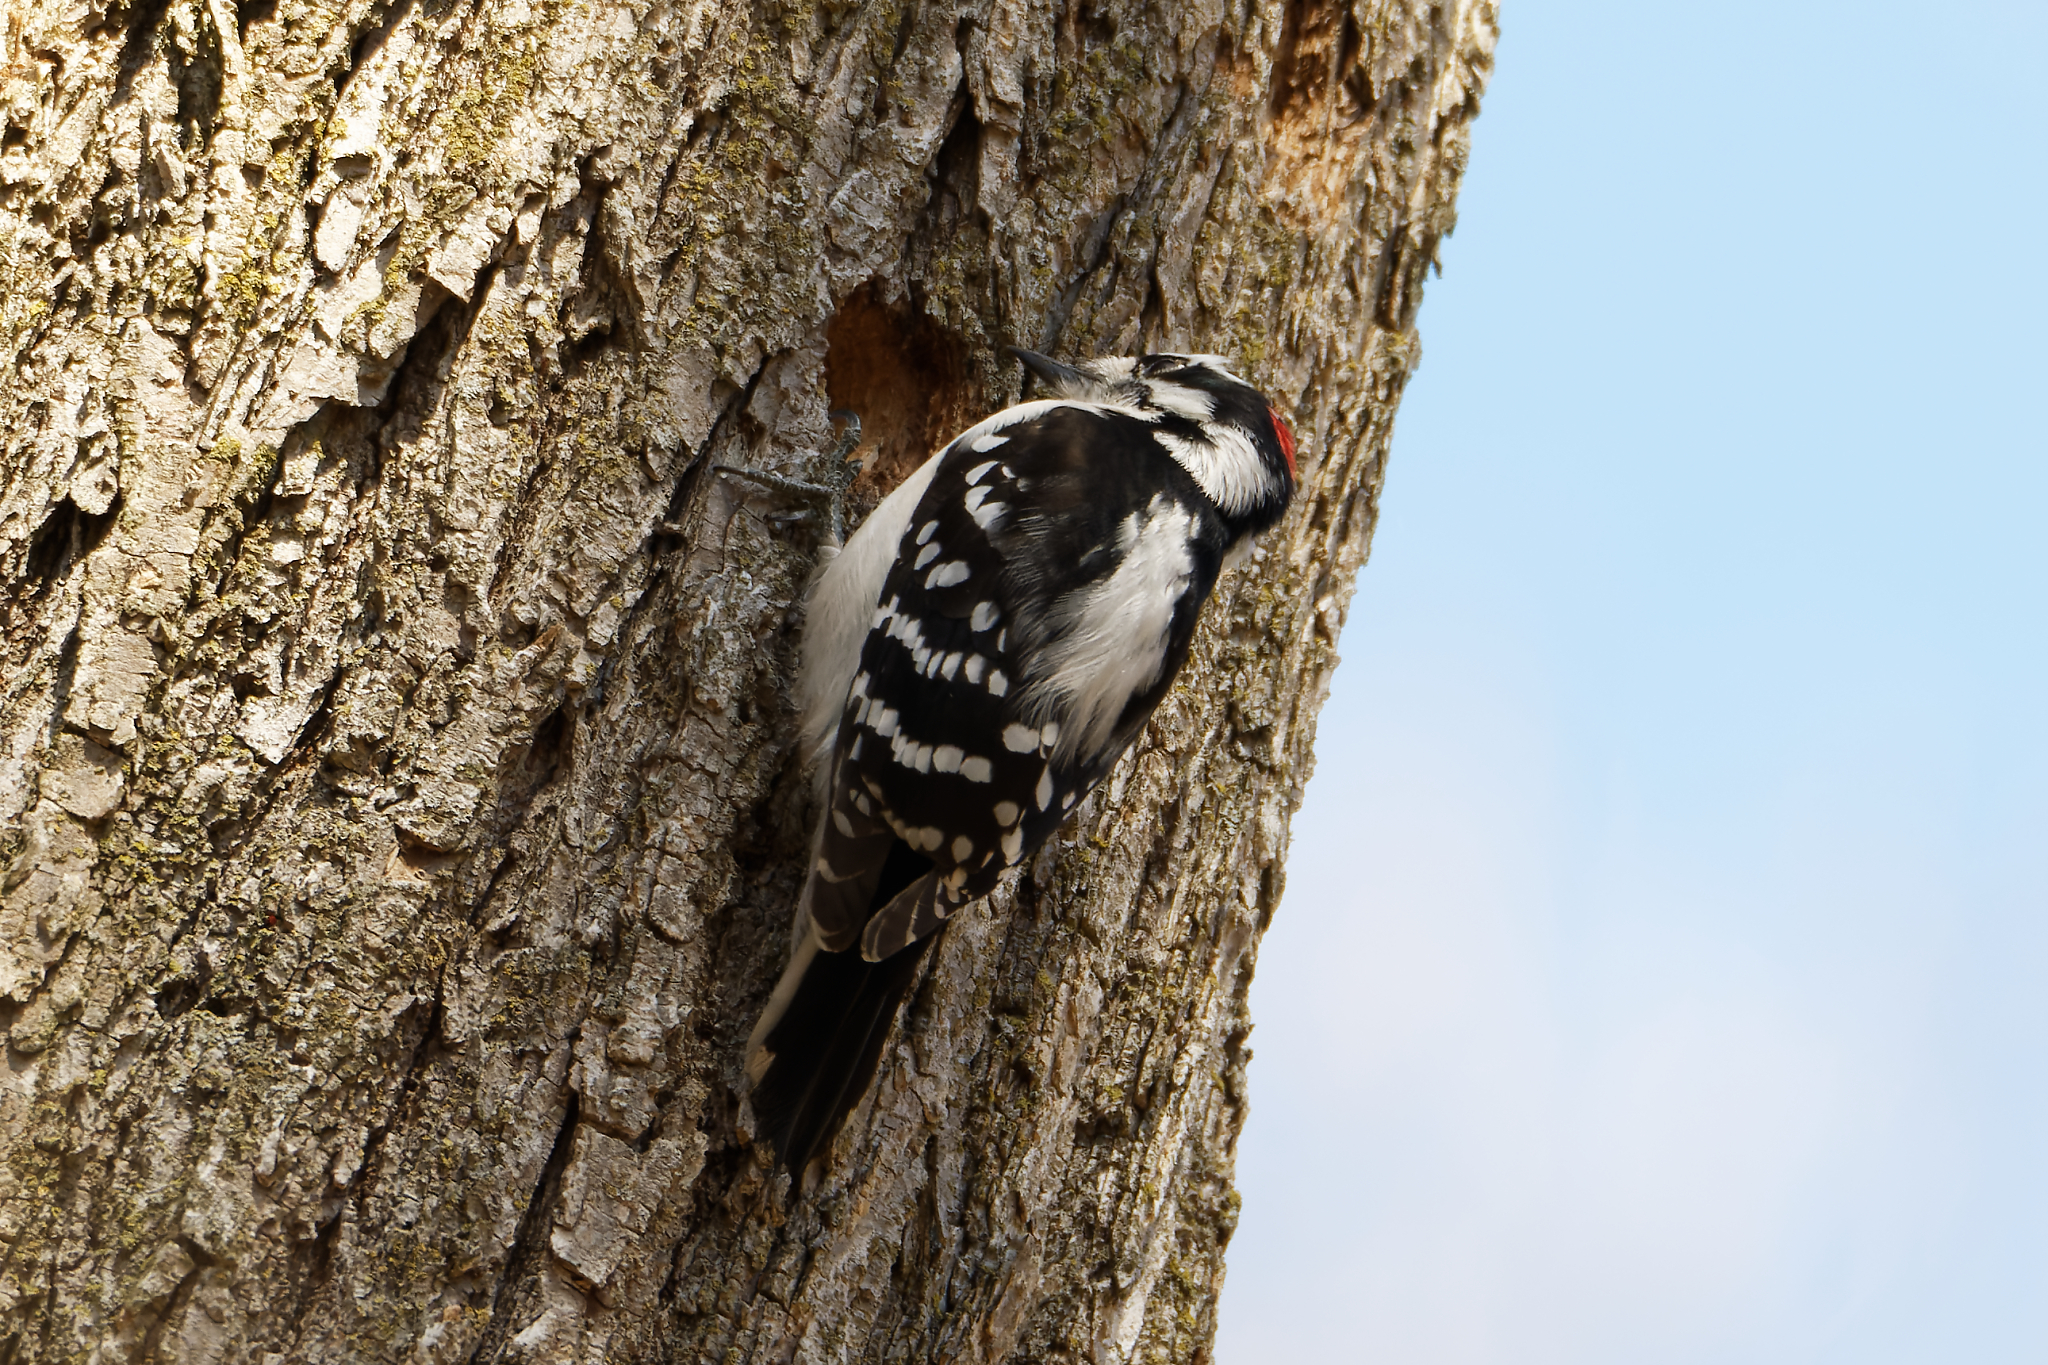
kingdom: Animalia
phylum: Chordata
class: Aves
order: Piciformes
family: Picidae
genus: Dryobates
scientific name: Dryobates pubescens
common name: Downy woodpecker
